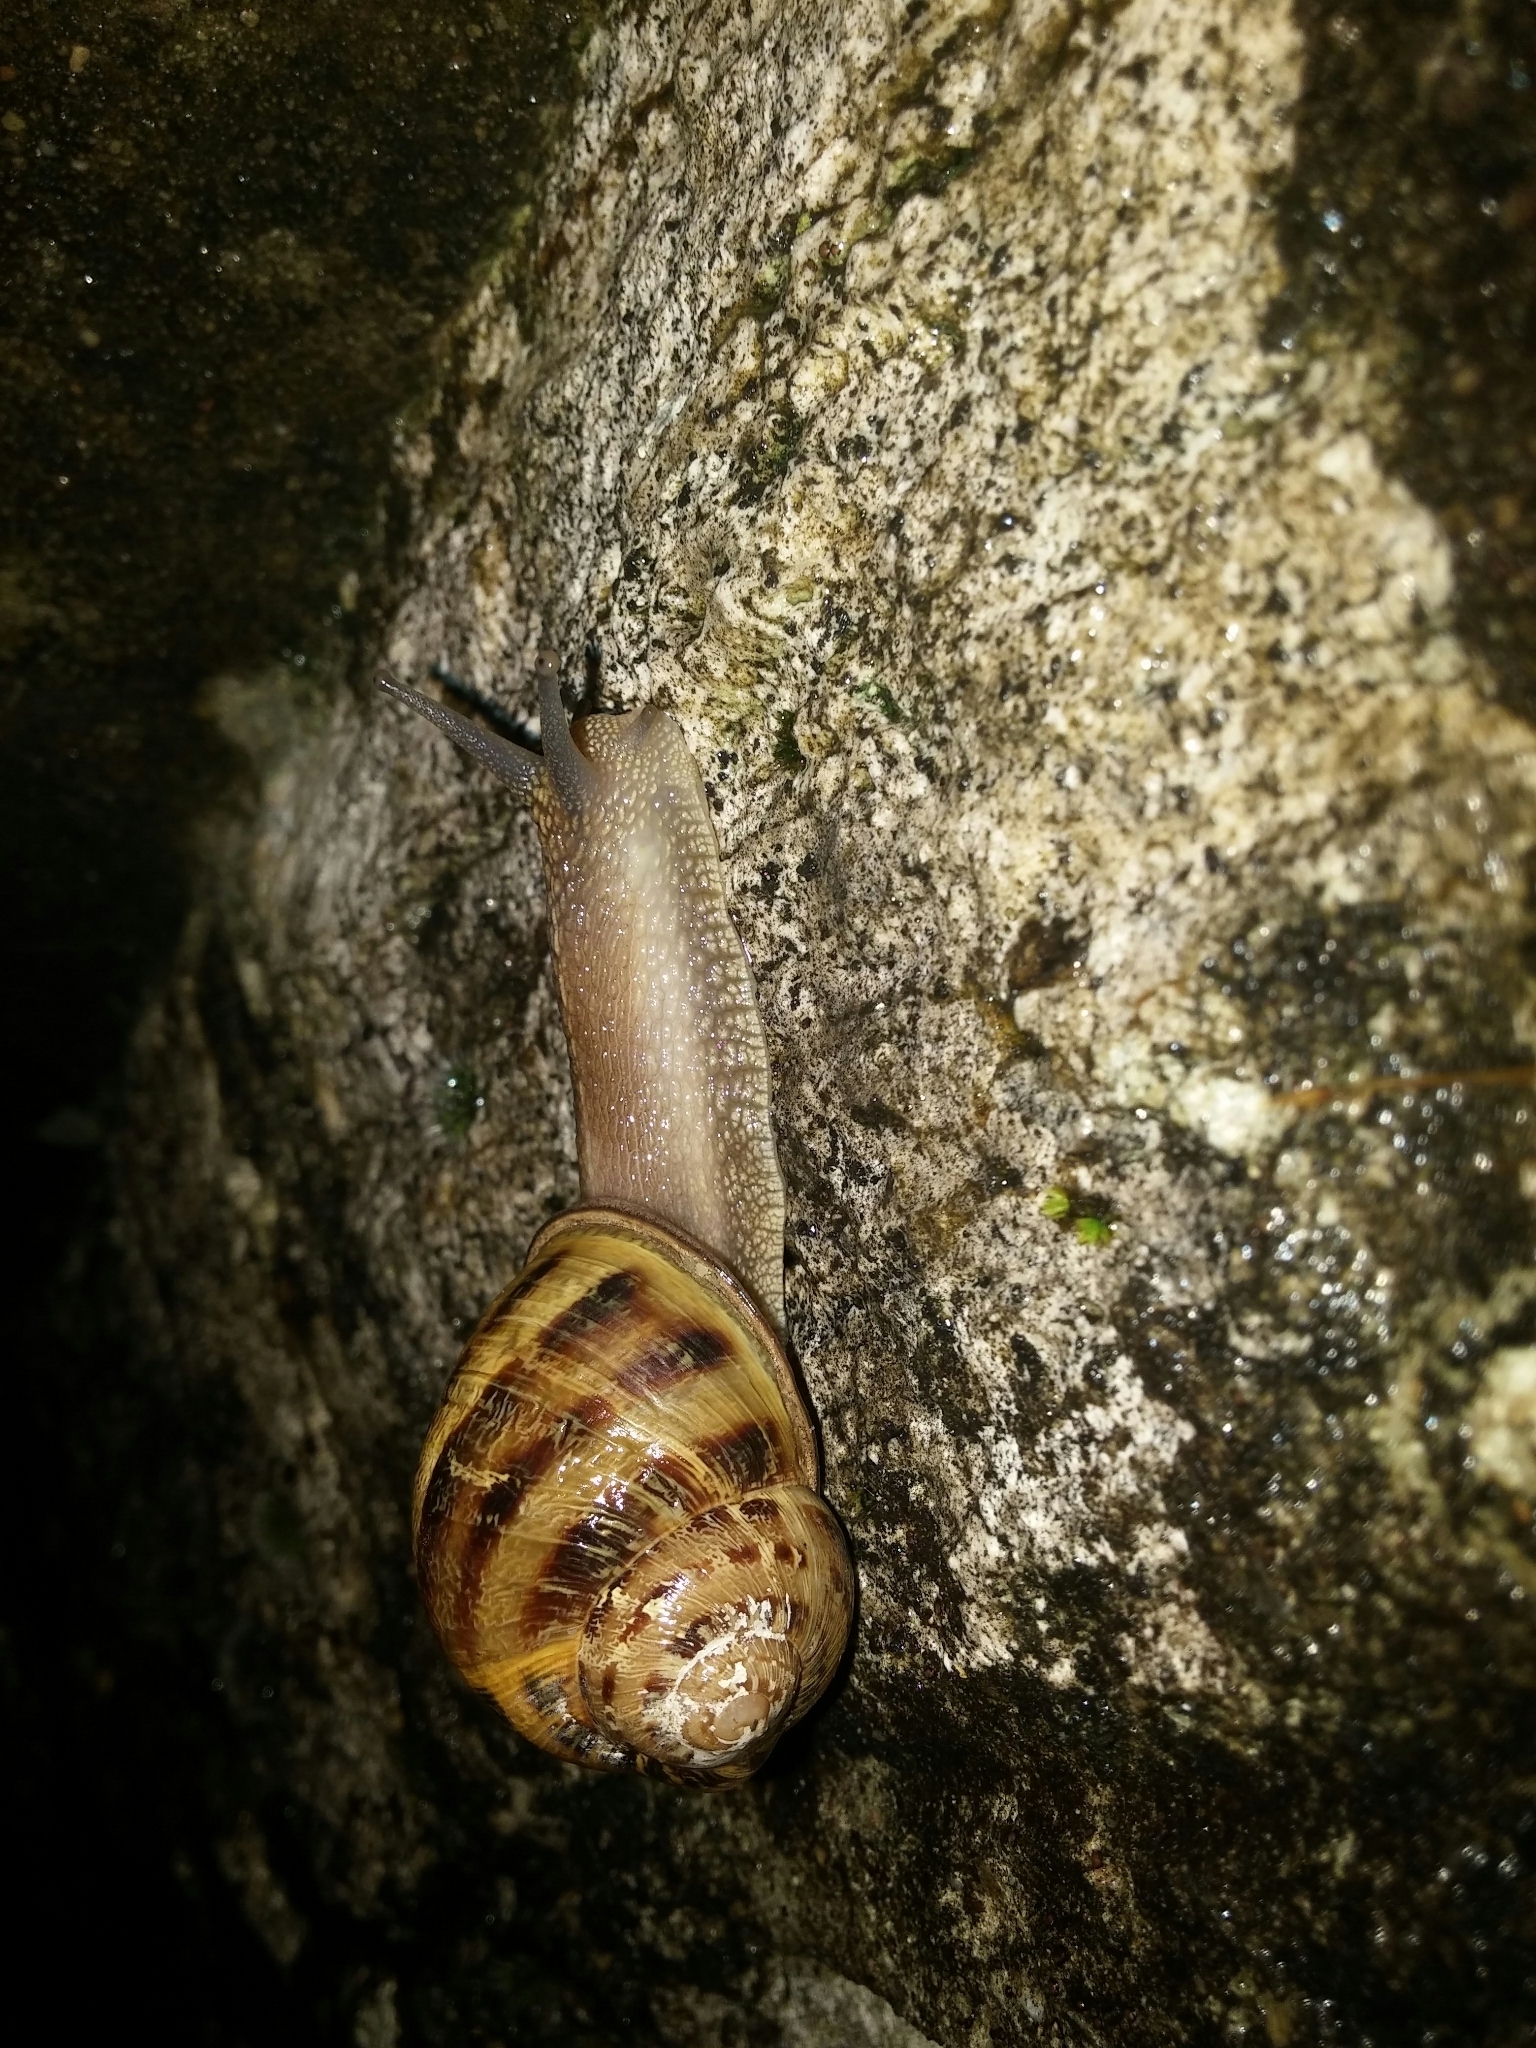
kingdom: Animalia
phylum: Mollusca
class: Gastropoda
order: Stylommatophora
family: Helicidae
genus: Cornu
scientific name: Cornu aspersum
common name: Brown garden snail
